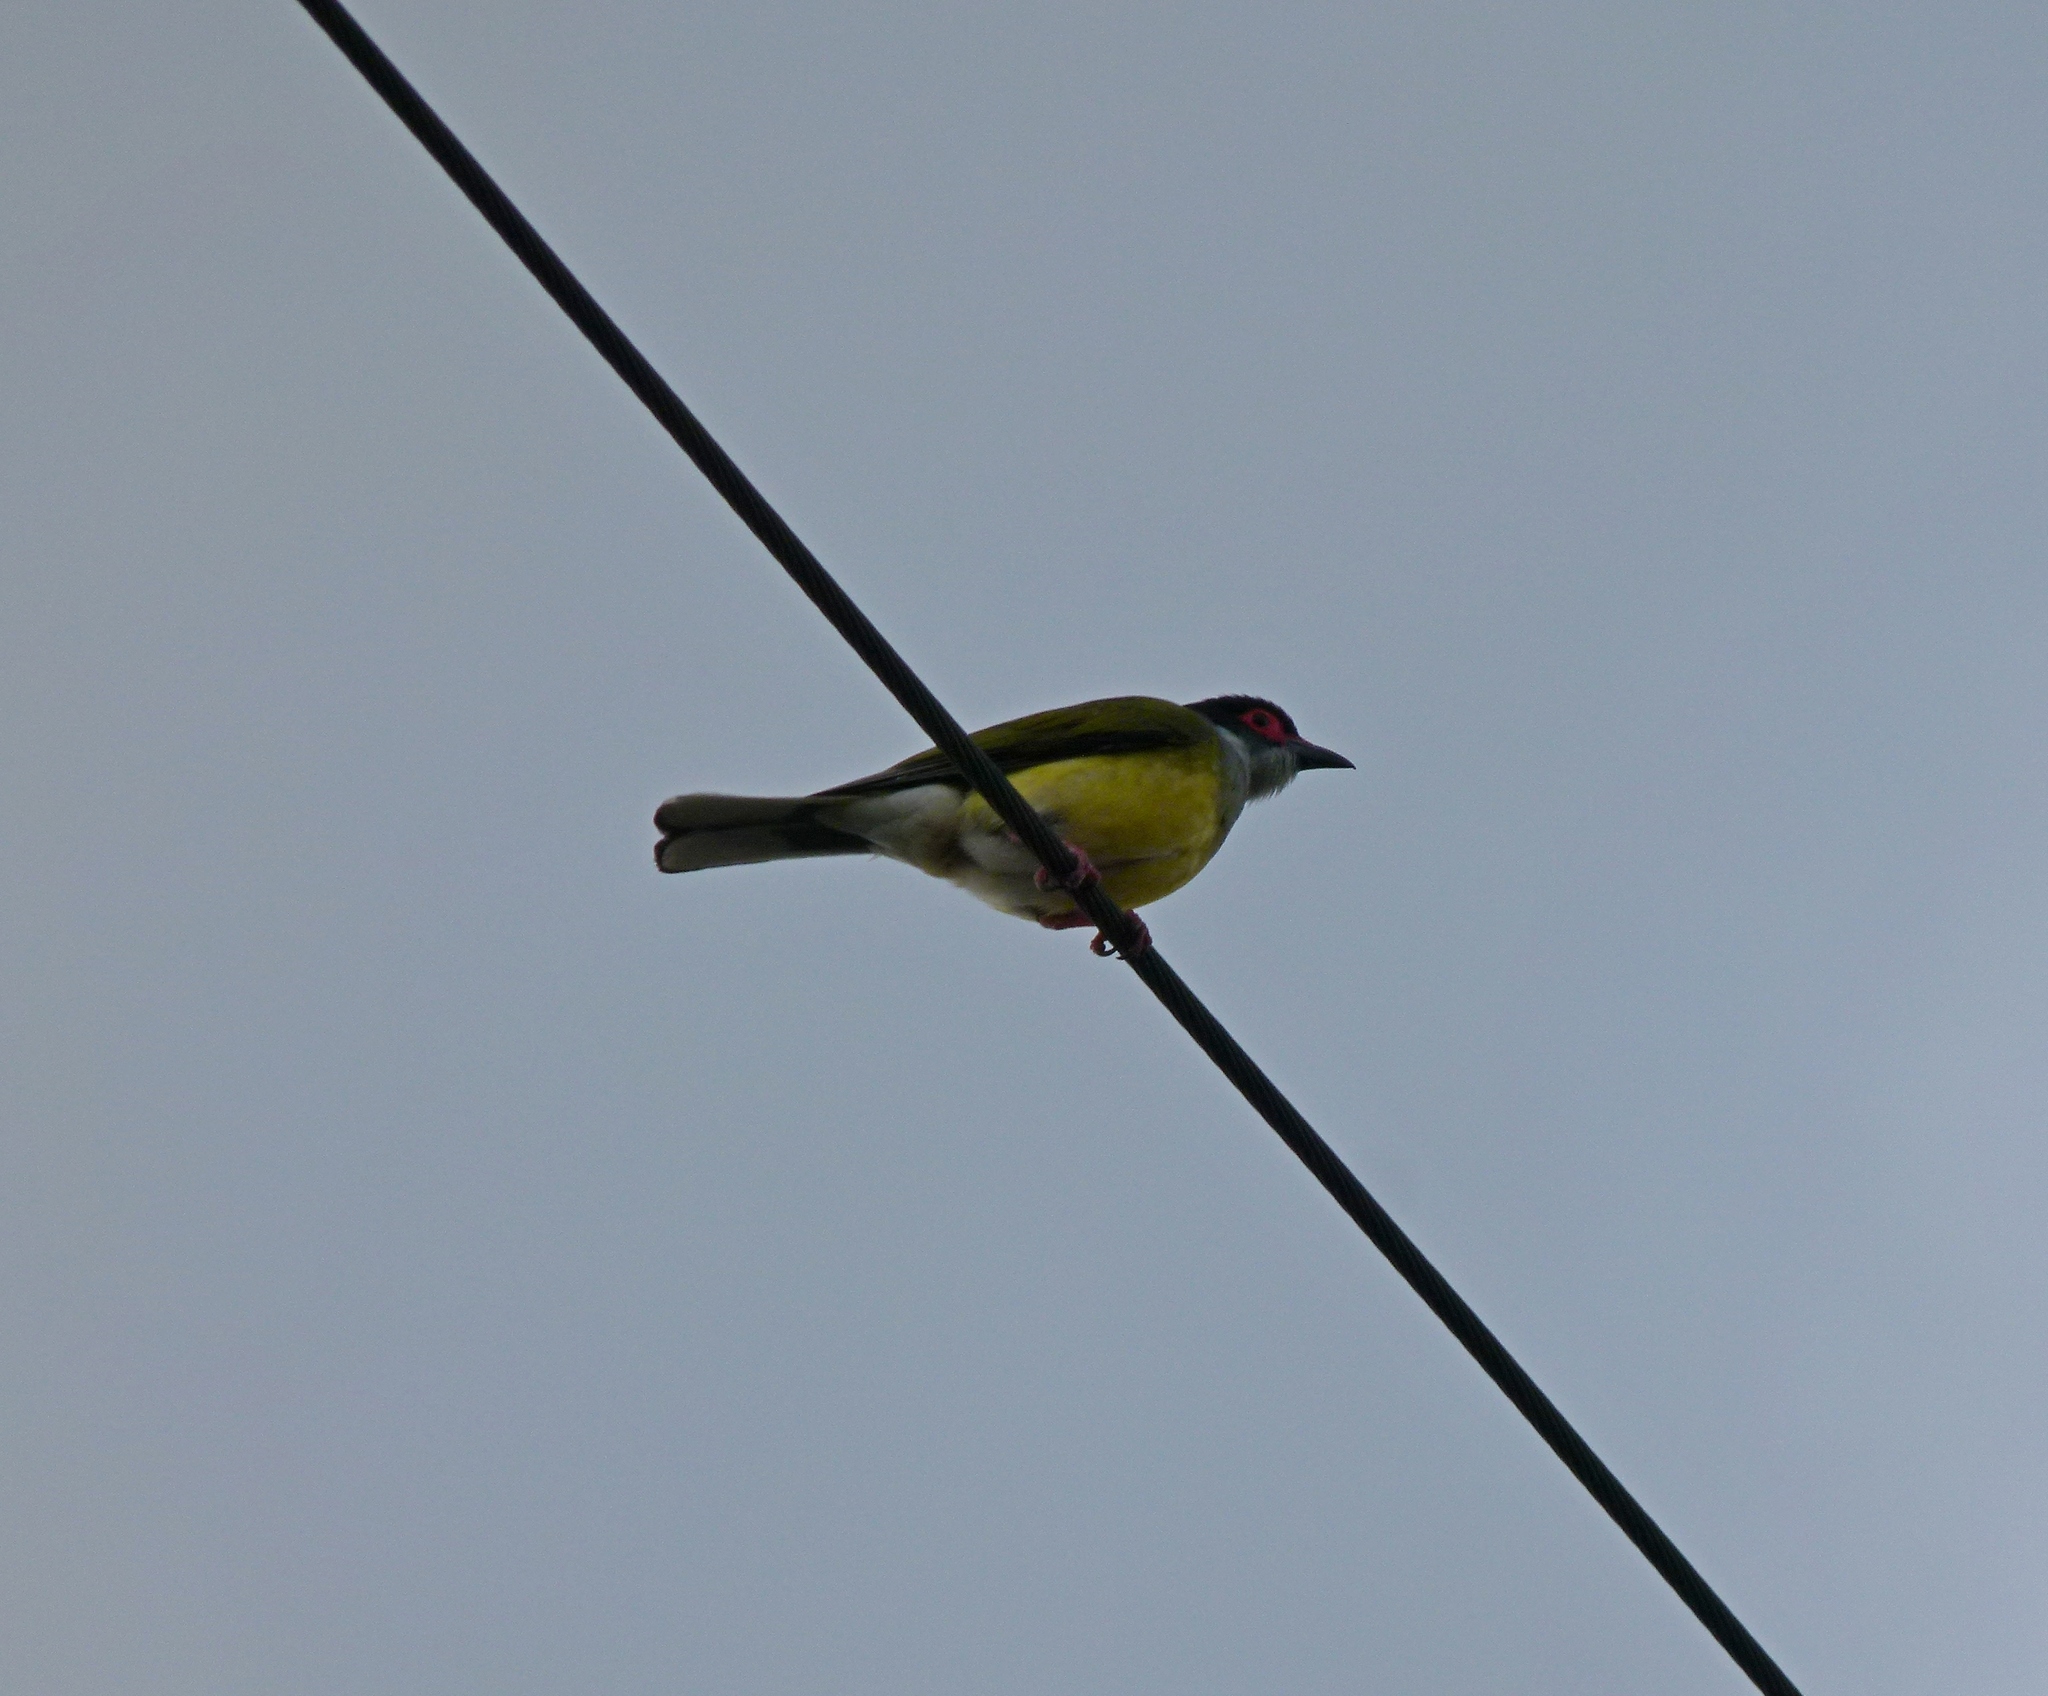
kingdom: Animalia
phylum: Chordata
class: Aves
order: Passeriformes
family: Oriolidae
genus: Sphecotheres
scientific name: Sphecotheres vieilloti
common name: Australasian figbird
